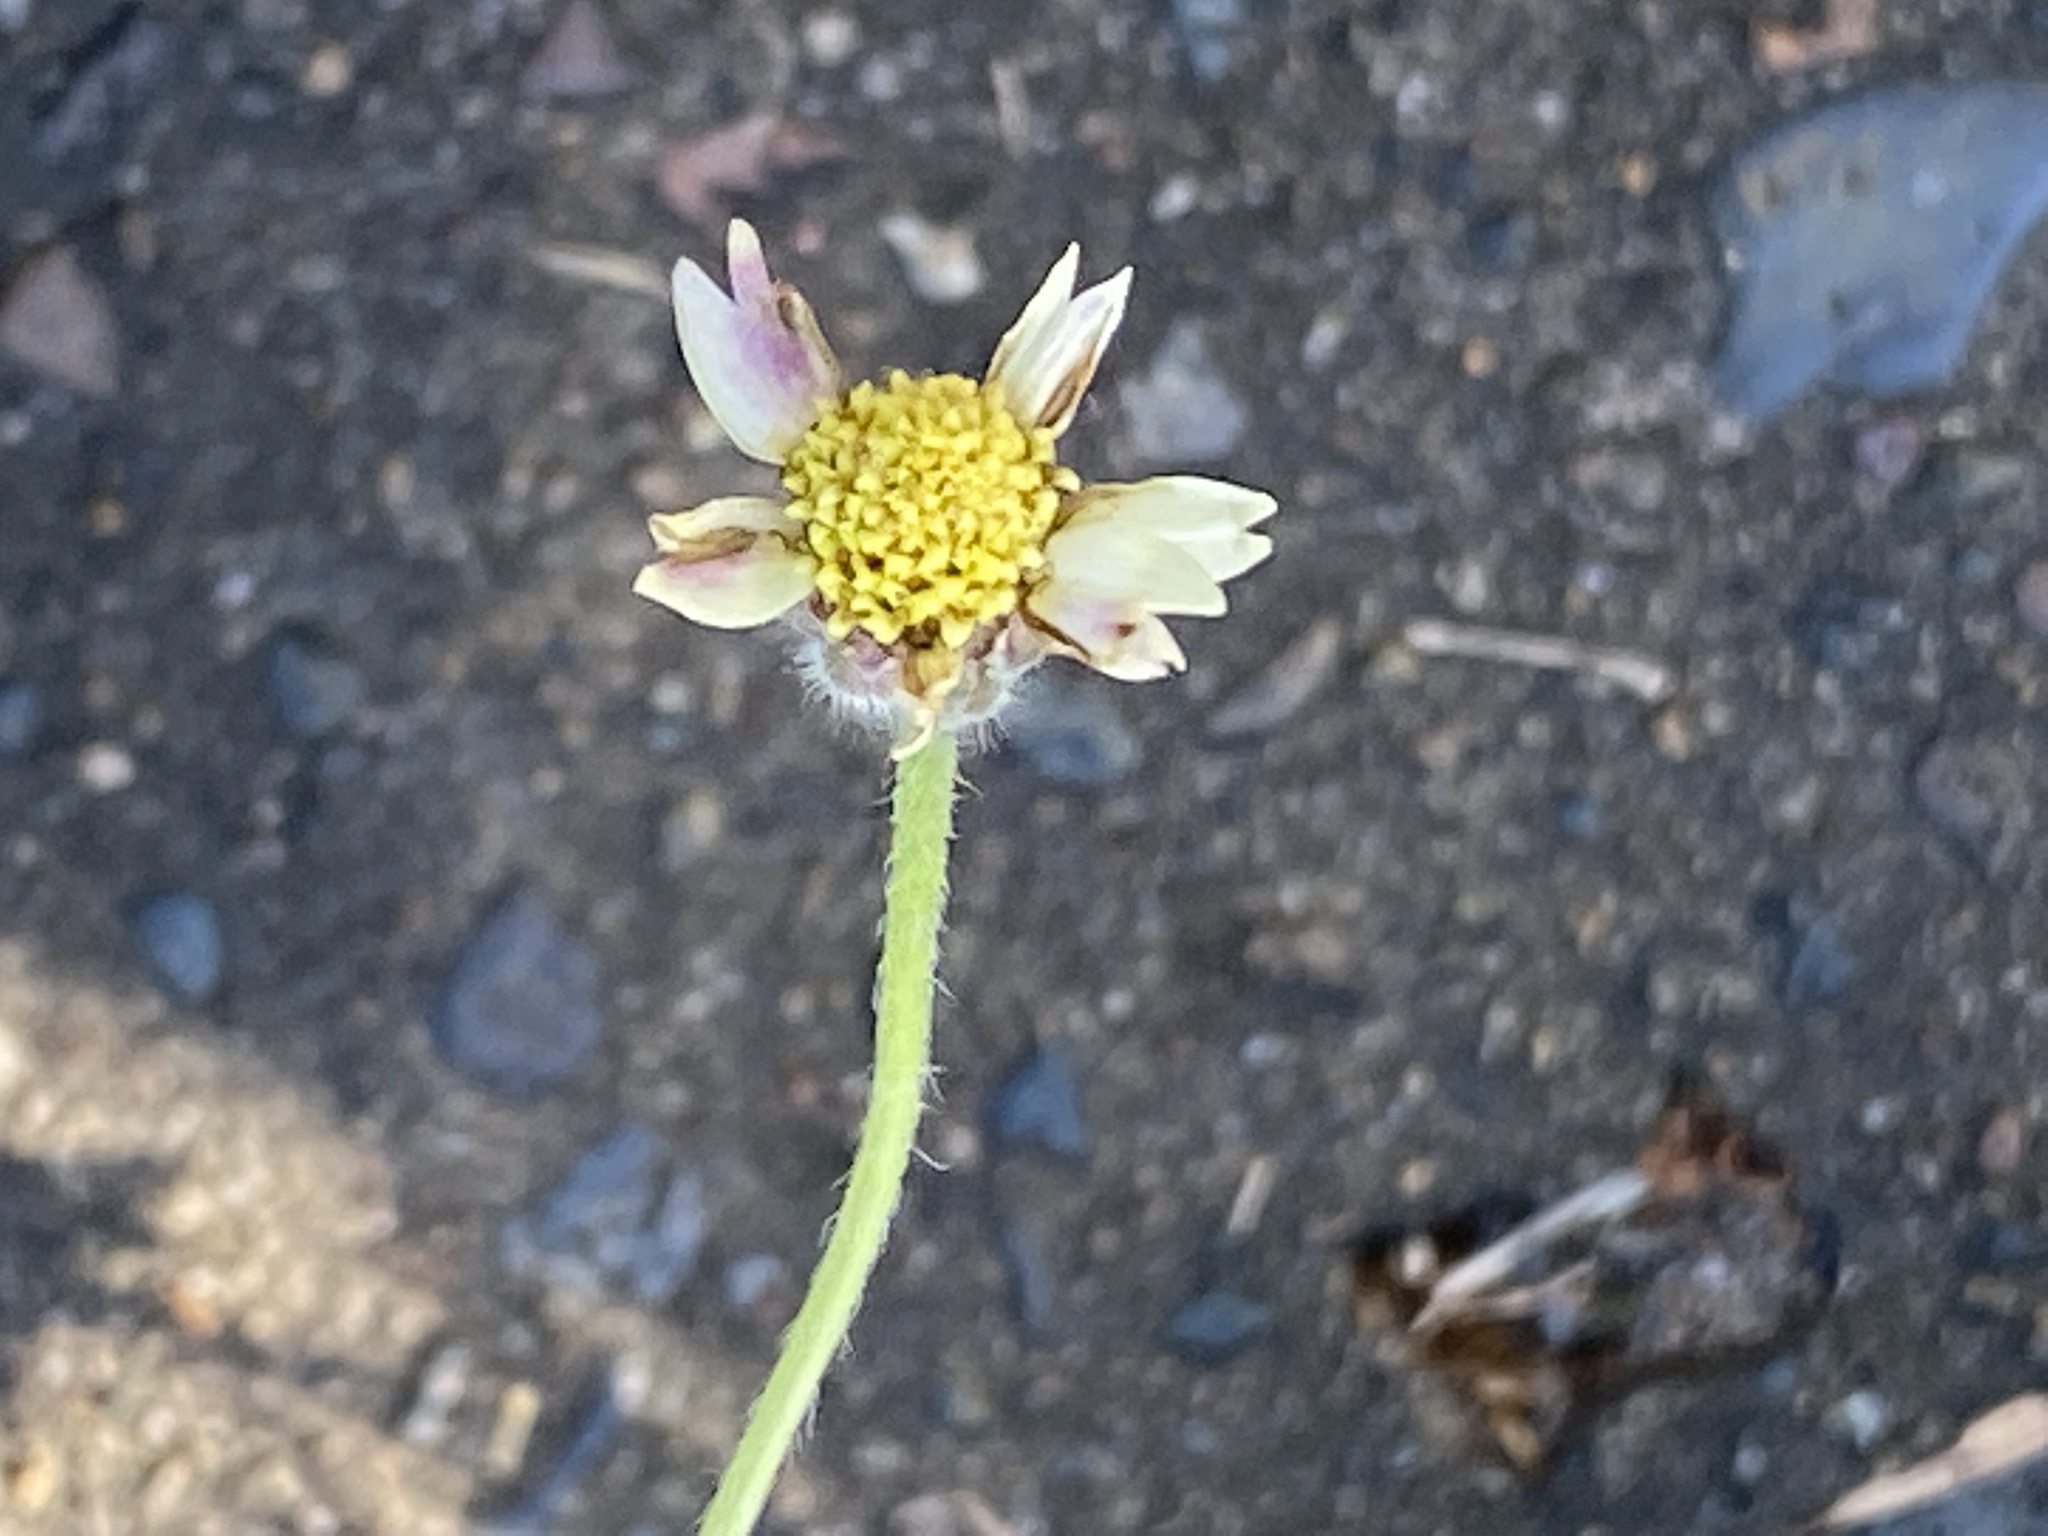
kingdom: Plantae
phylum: Tracheophyta
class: Magnoliopsida
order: Asterales
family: Asteraceae
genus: Tridax
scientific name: Tridax procumbens
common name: Coatbuttons
